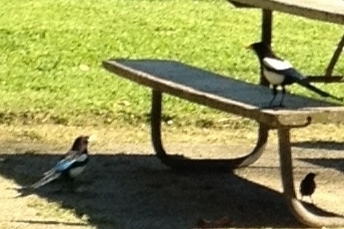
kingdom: Animalia
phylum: Chordata
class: Aves
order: Passeriformes
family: Corvidae
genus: Pica
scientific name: Pica nuttalli
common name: Yellow-billed magpie
